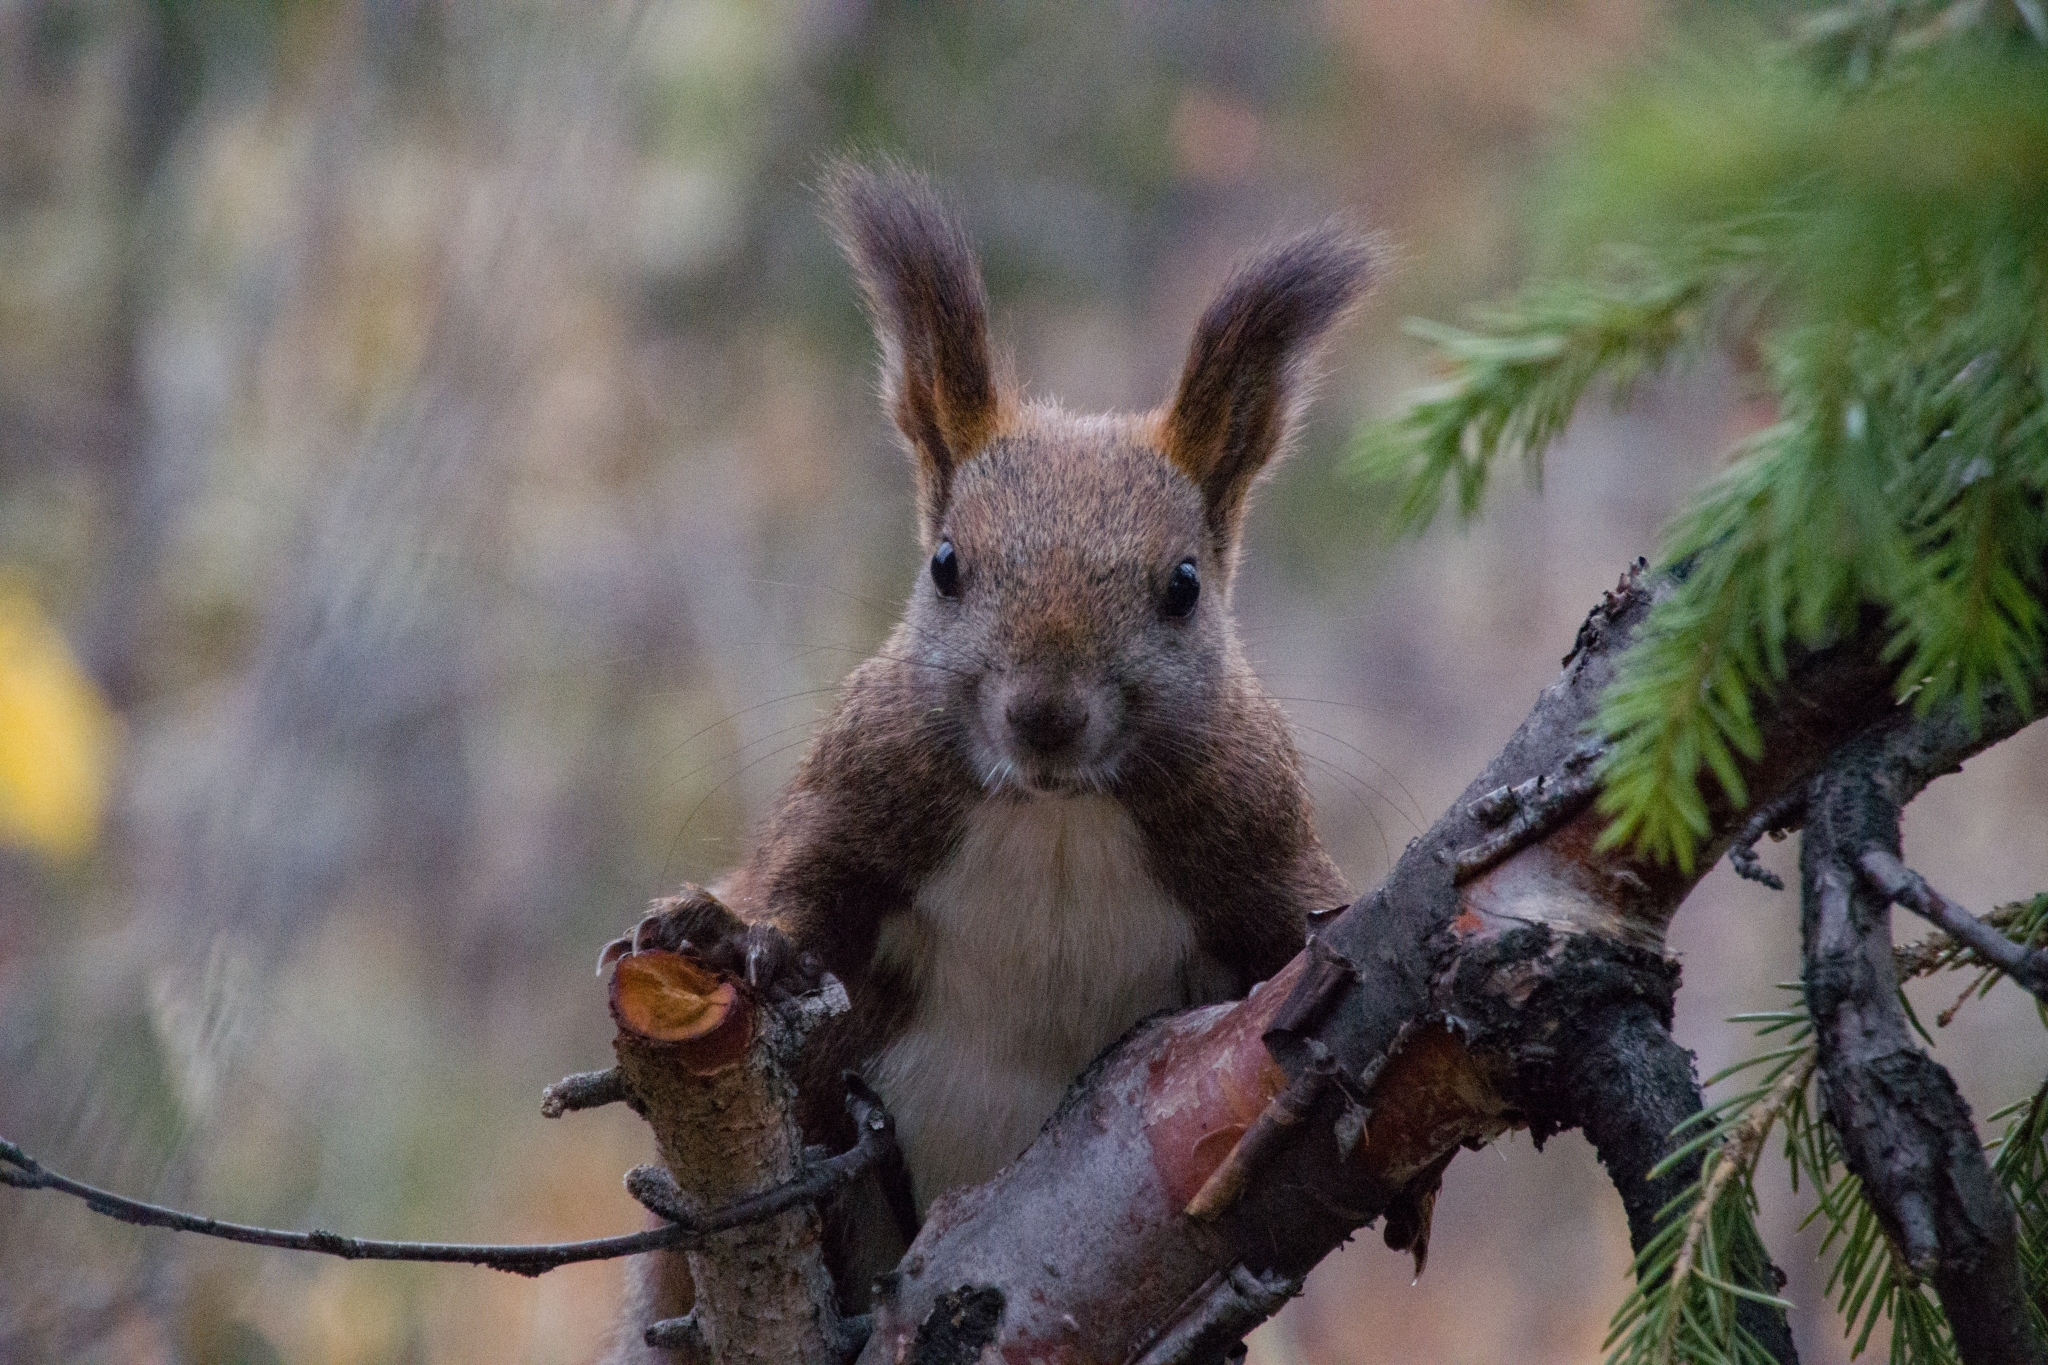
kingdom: Animalia
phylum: Chordata
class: Mammalia
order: Rodentia
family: Sciuridae
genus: Sciurus
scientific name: Sciurus vulgaris
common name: Eurasian red squirrel
